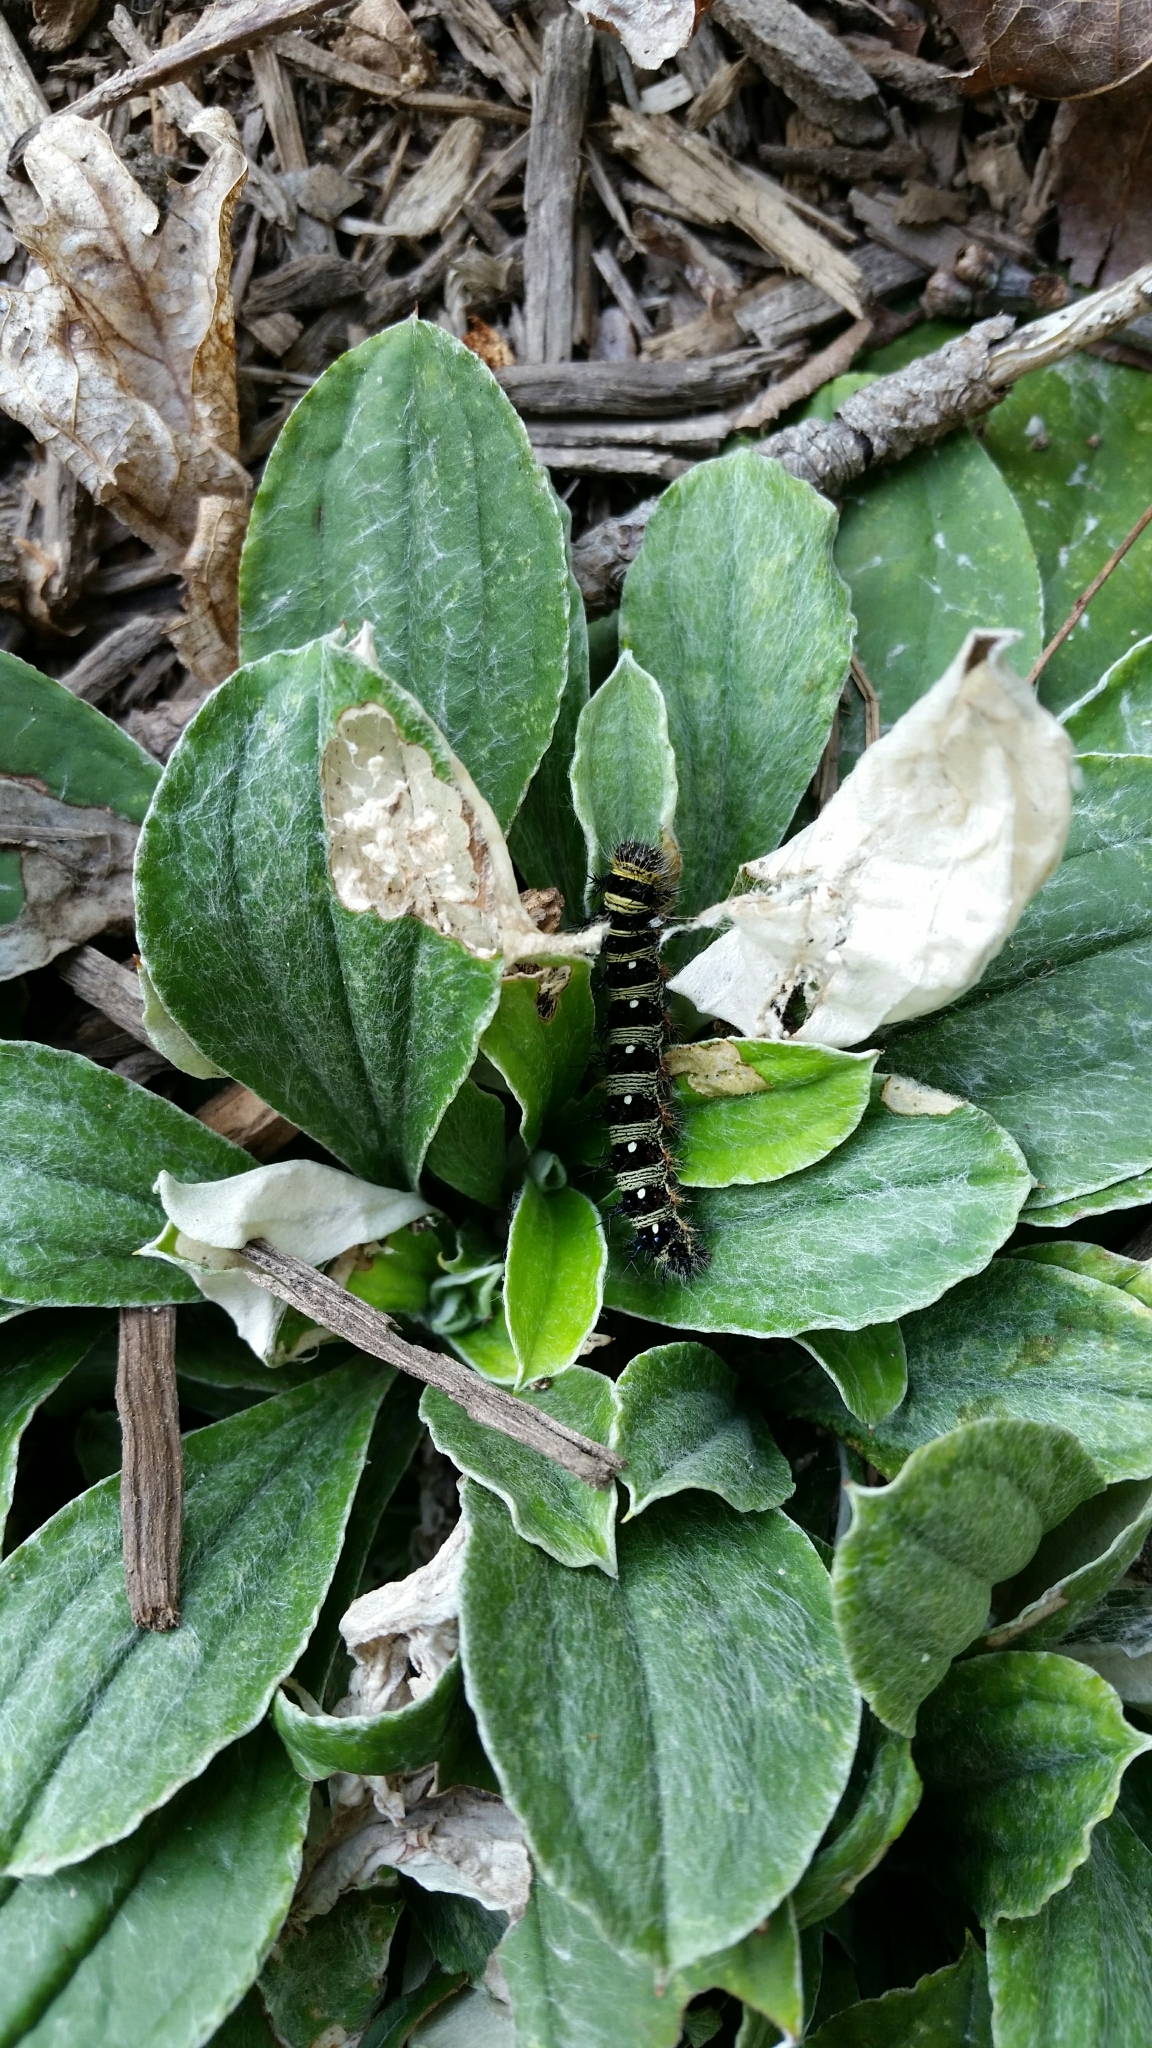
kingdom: Animalia
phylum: Arthropoda
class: Insecta
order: Lepidoptera
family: Nymphalidae
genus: Vanessa
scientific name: Vanessa virginiensis
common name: American lady
